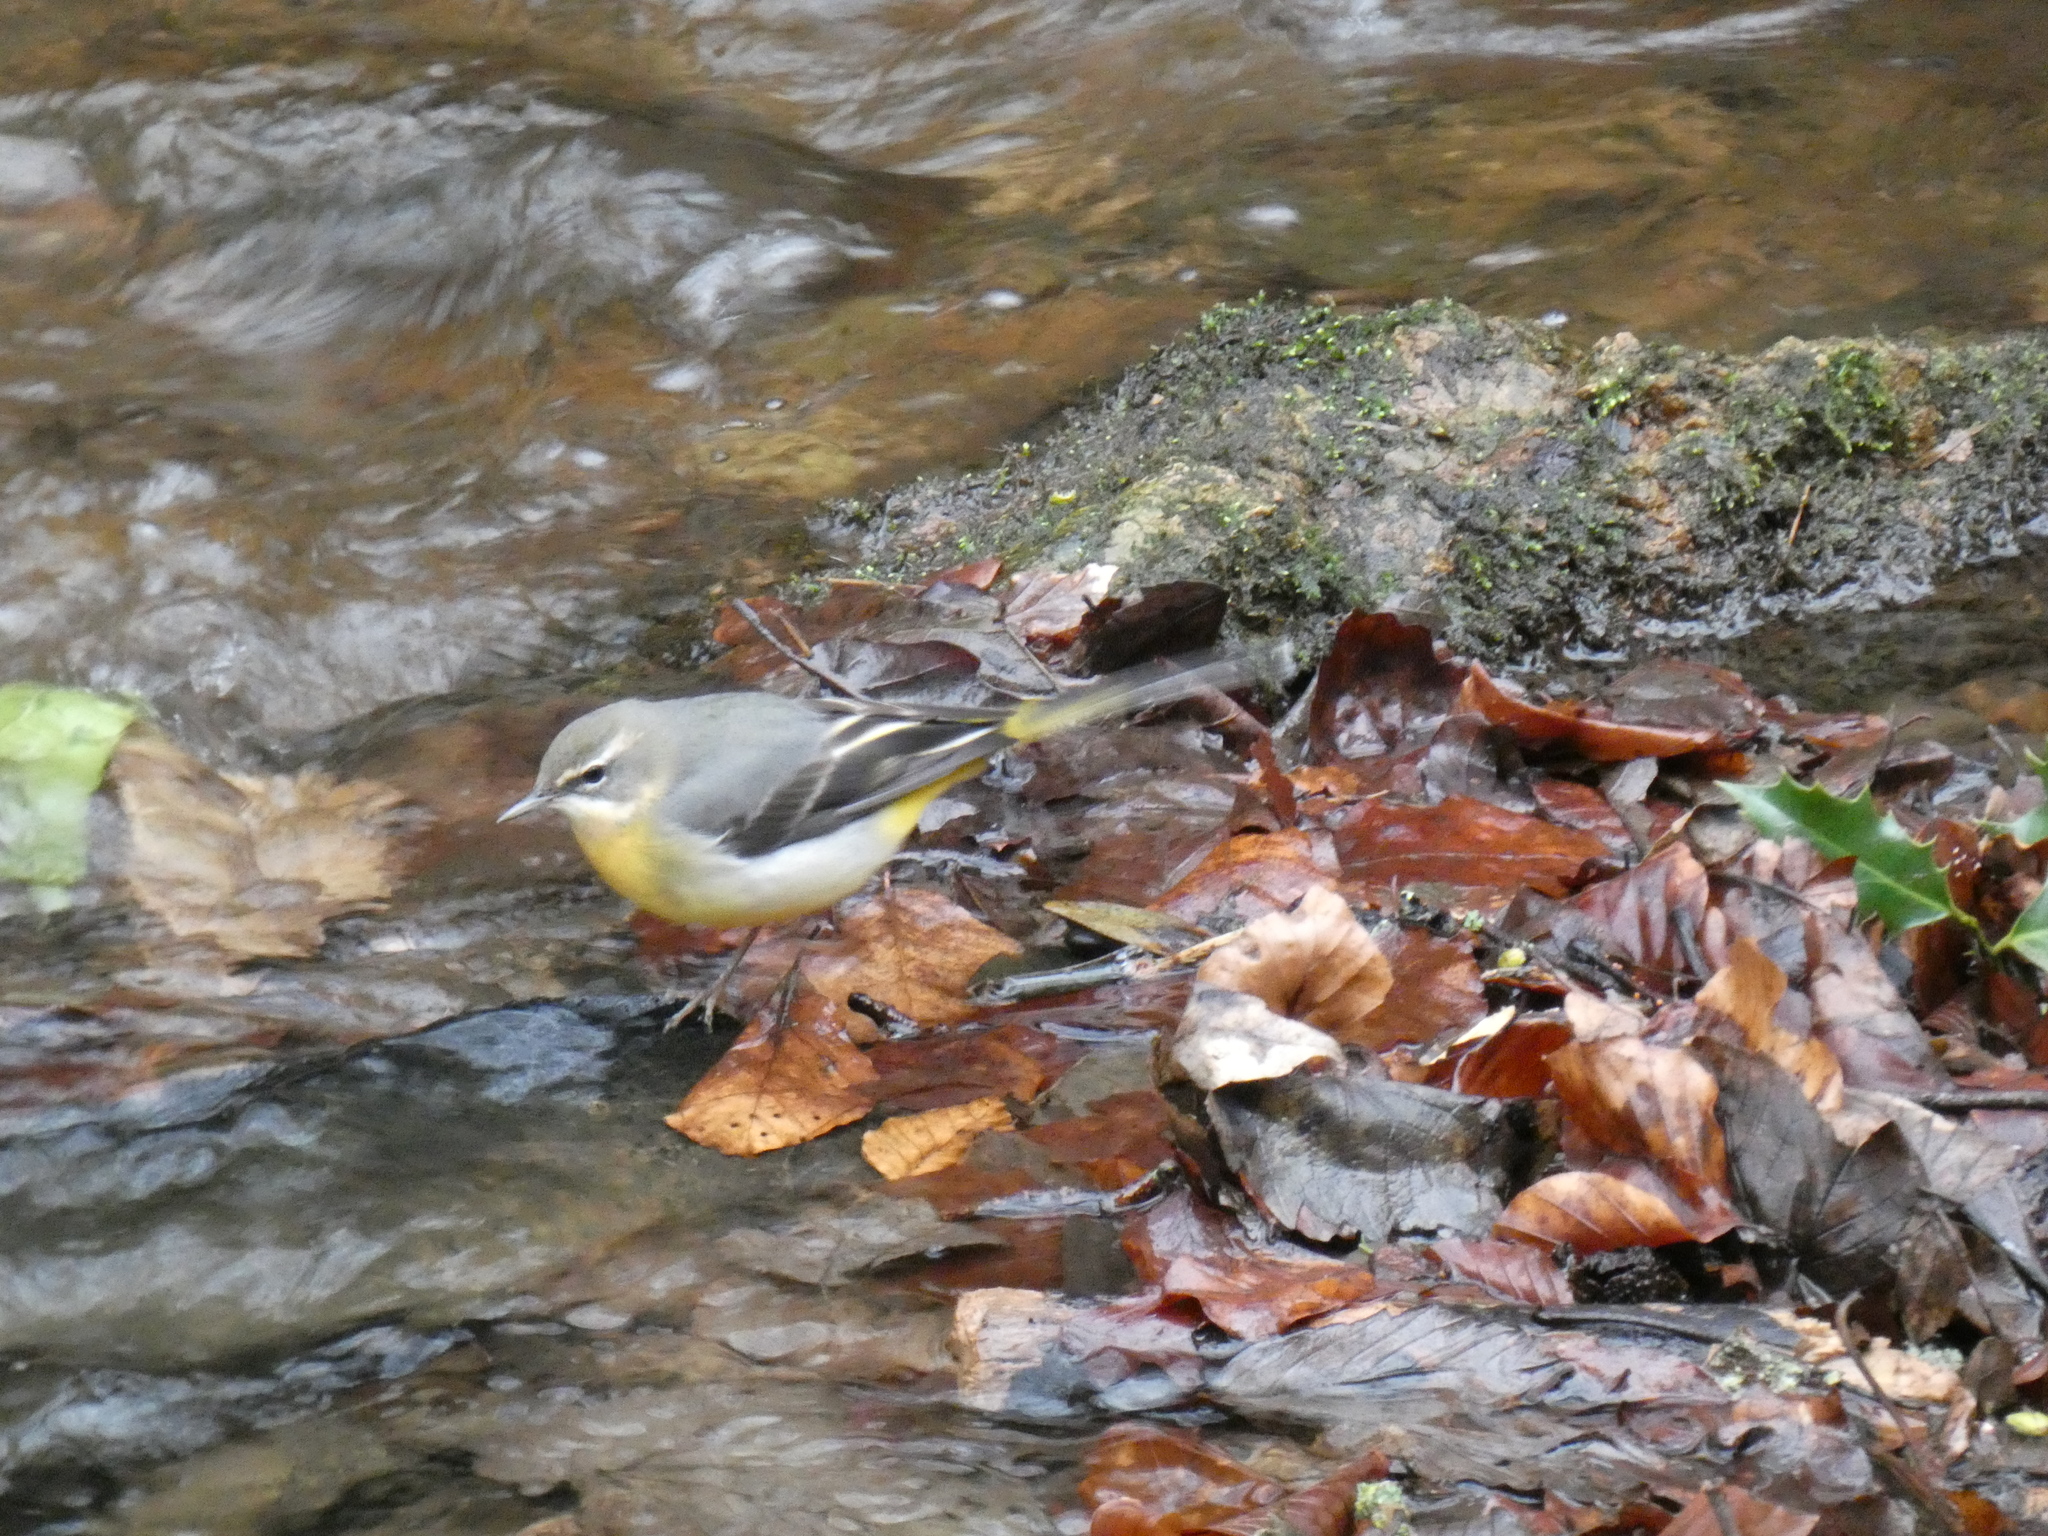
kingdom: Animalia
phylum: Chordata
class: Aves
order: Passeriformes
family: Motacillidae
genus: Motacilla
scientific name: Motacilla cinerea
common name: Grey wagtail
